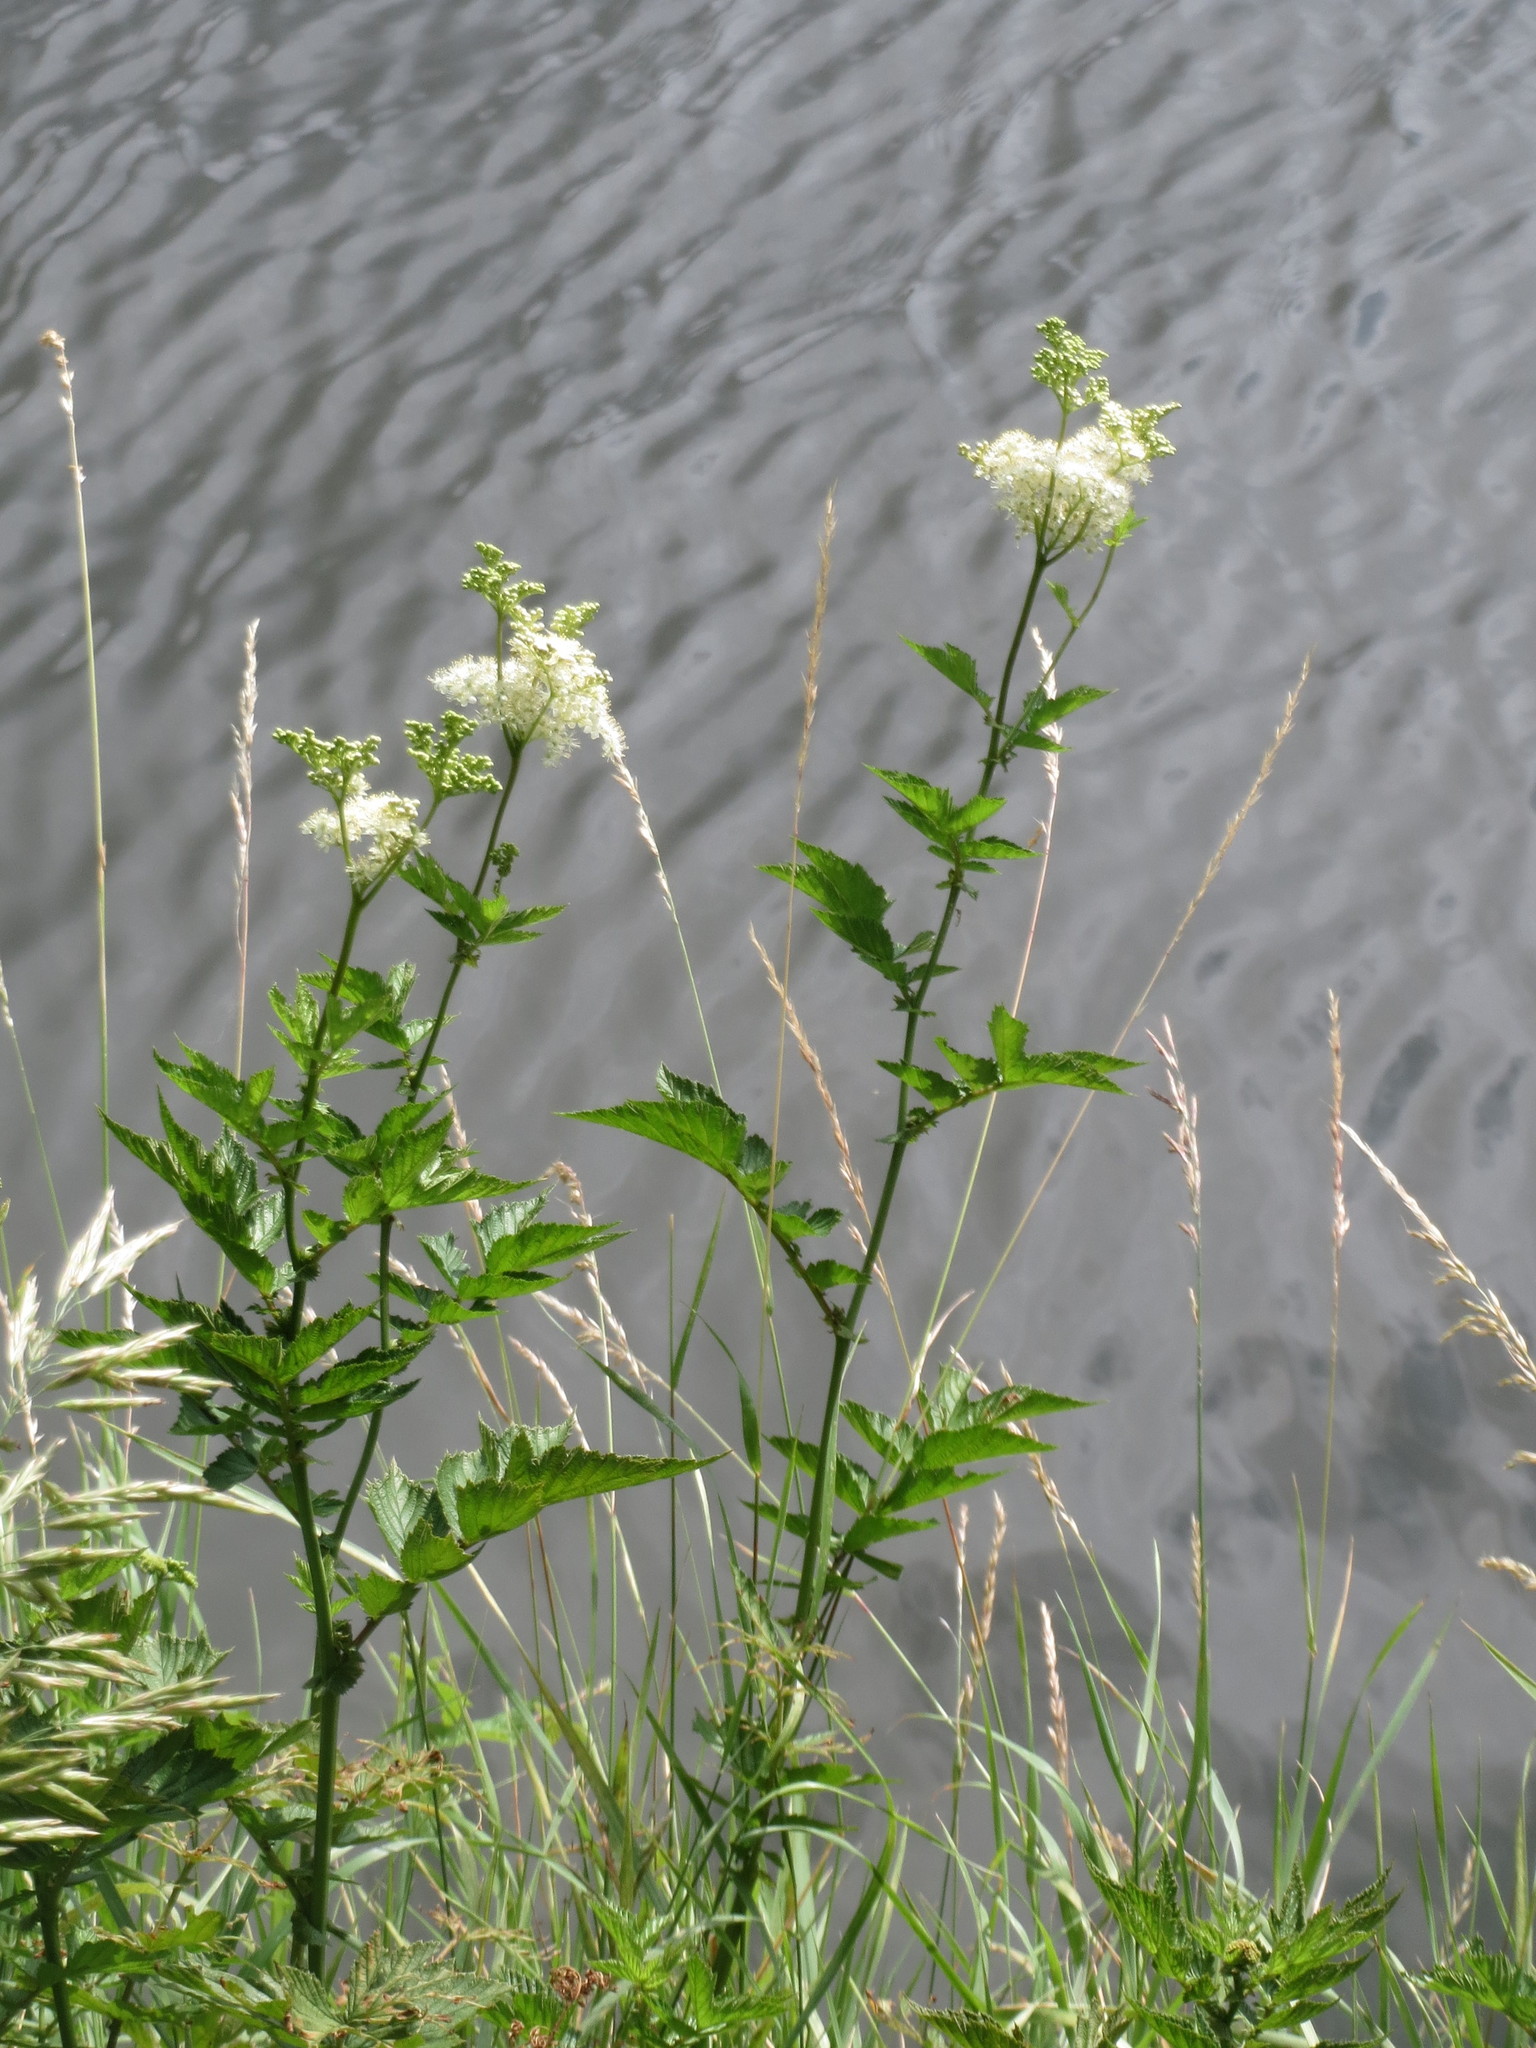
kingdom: Plantae
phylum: Tracheophyta
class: Magnoliopsida
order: Rosales
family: Rosaceae
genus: Filipendula
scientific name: Filipendula ulmaria
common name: Meadowsweet
